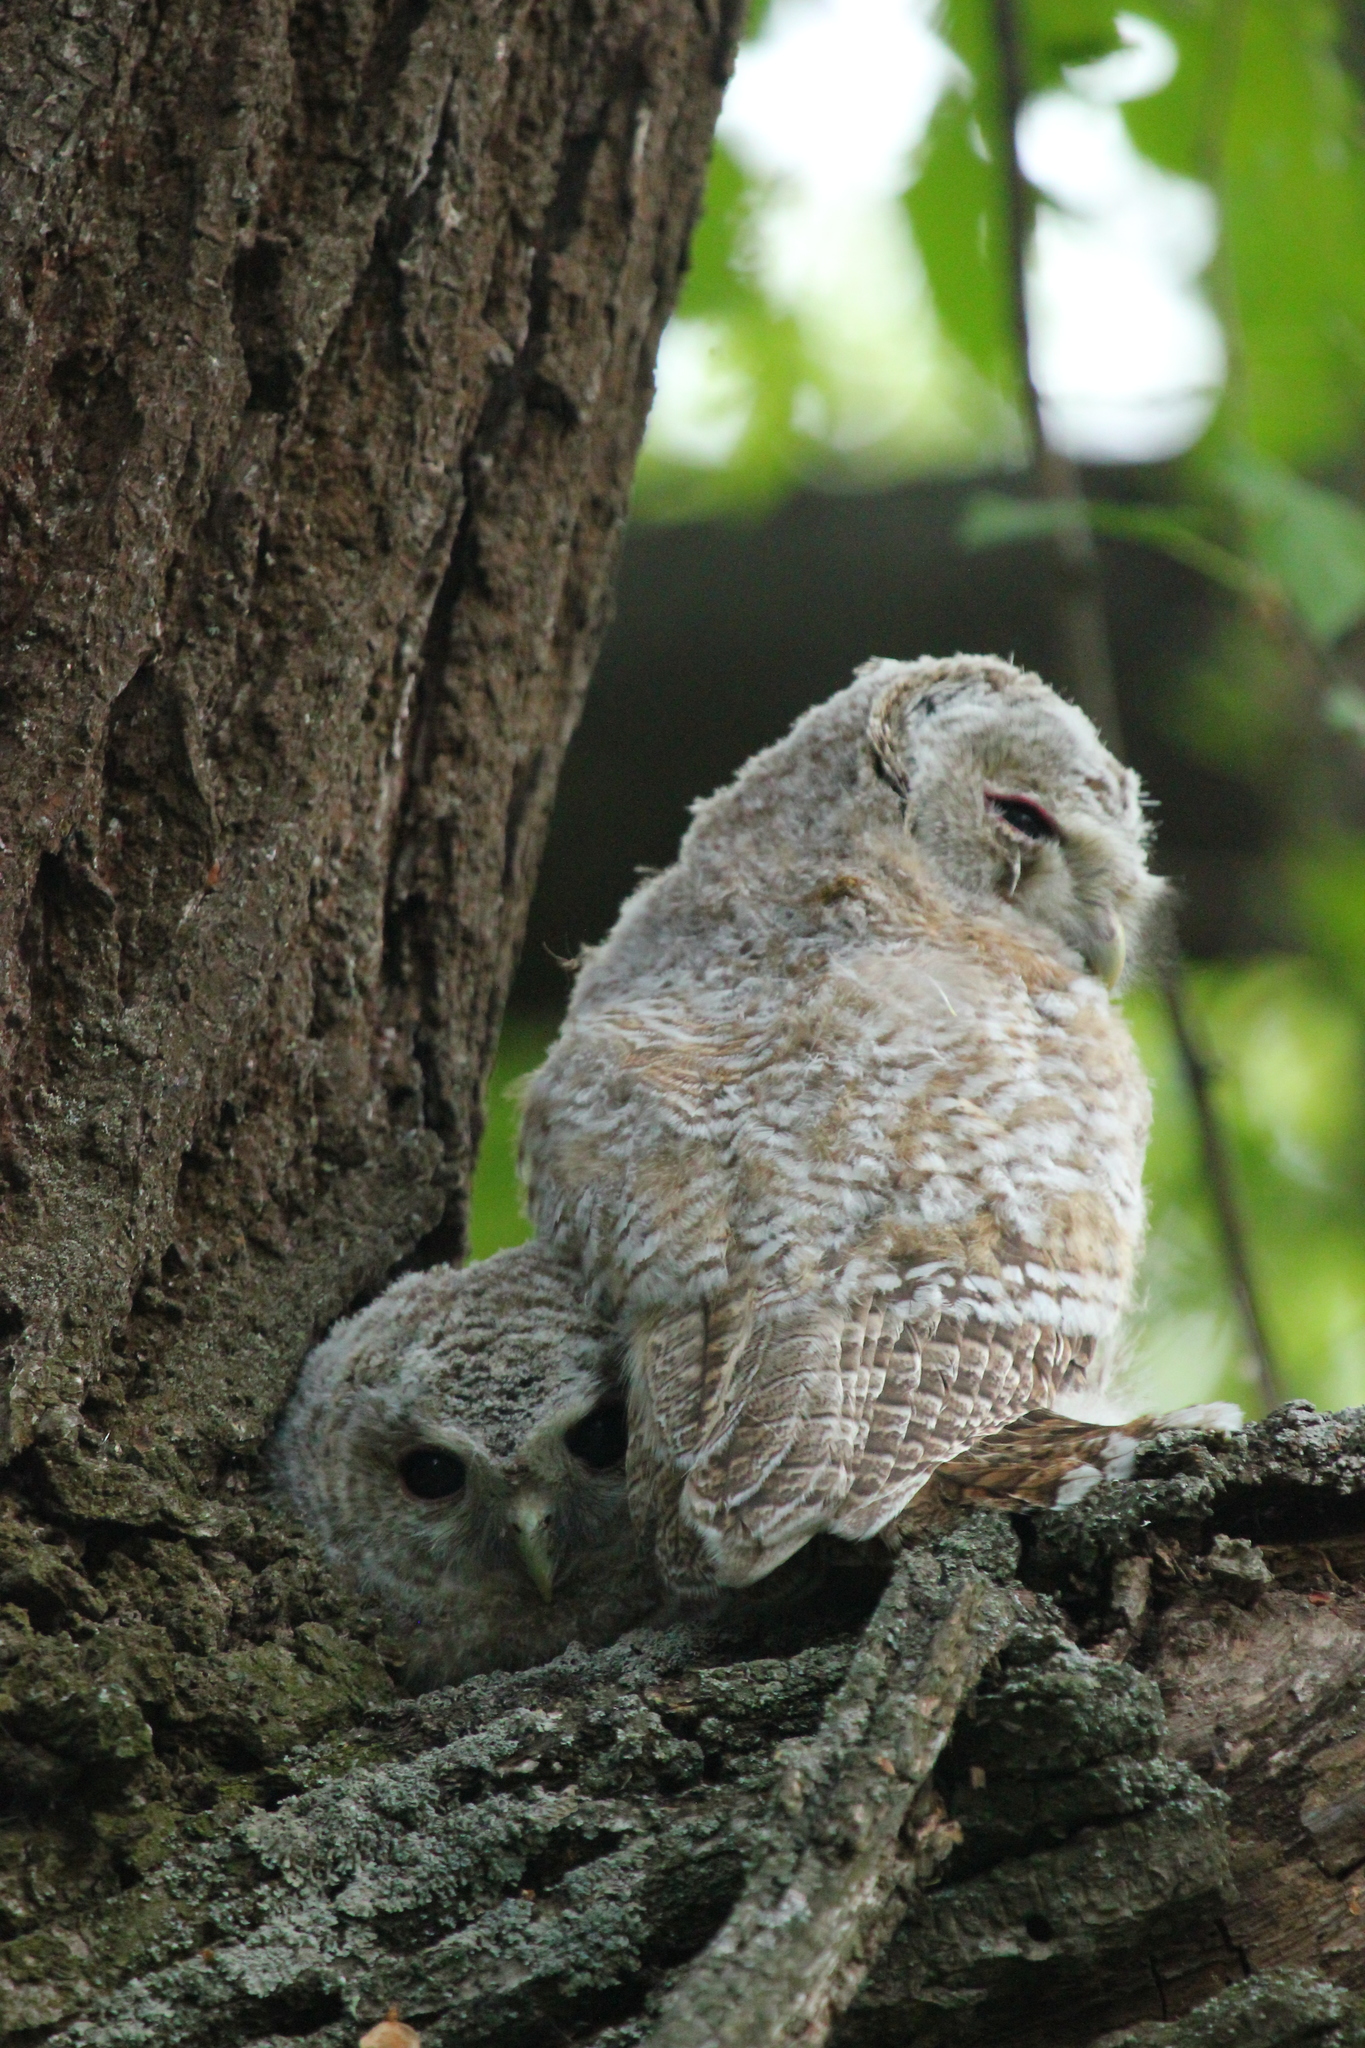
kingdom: Animalia
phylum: Chordata
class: Aves
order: Strigiformes
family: Strigidae
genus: Strix
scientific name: Strix aluco
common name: Tawny owl
